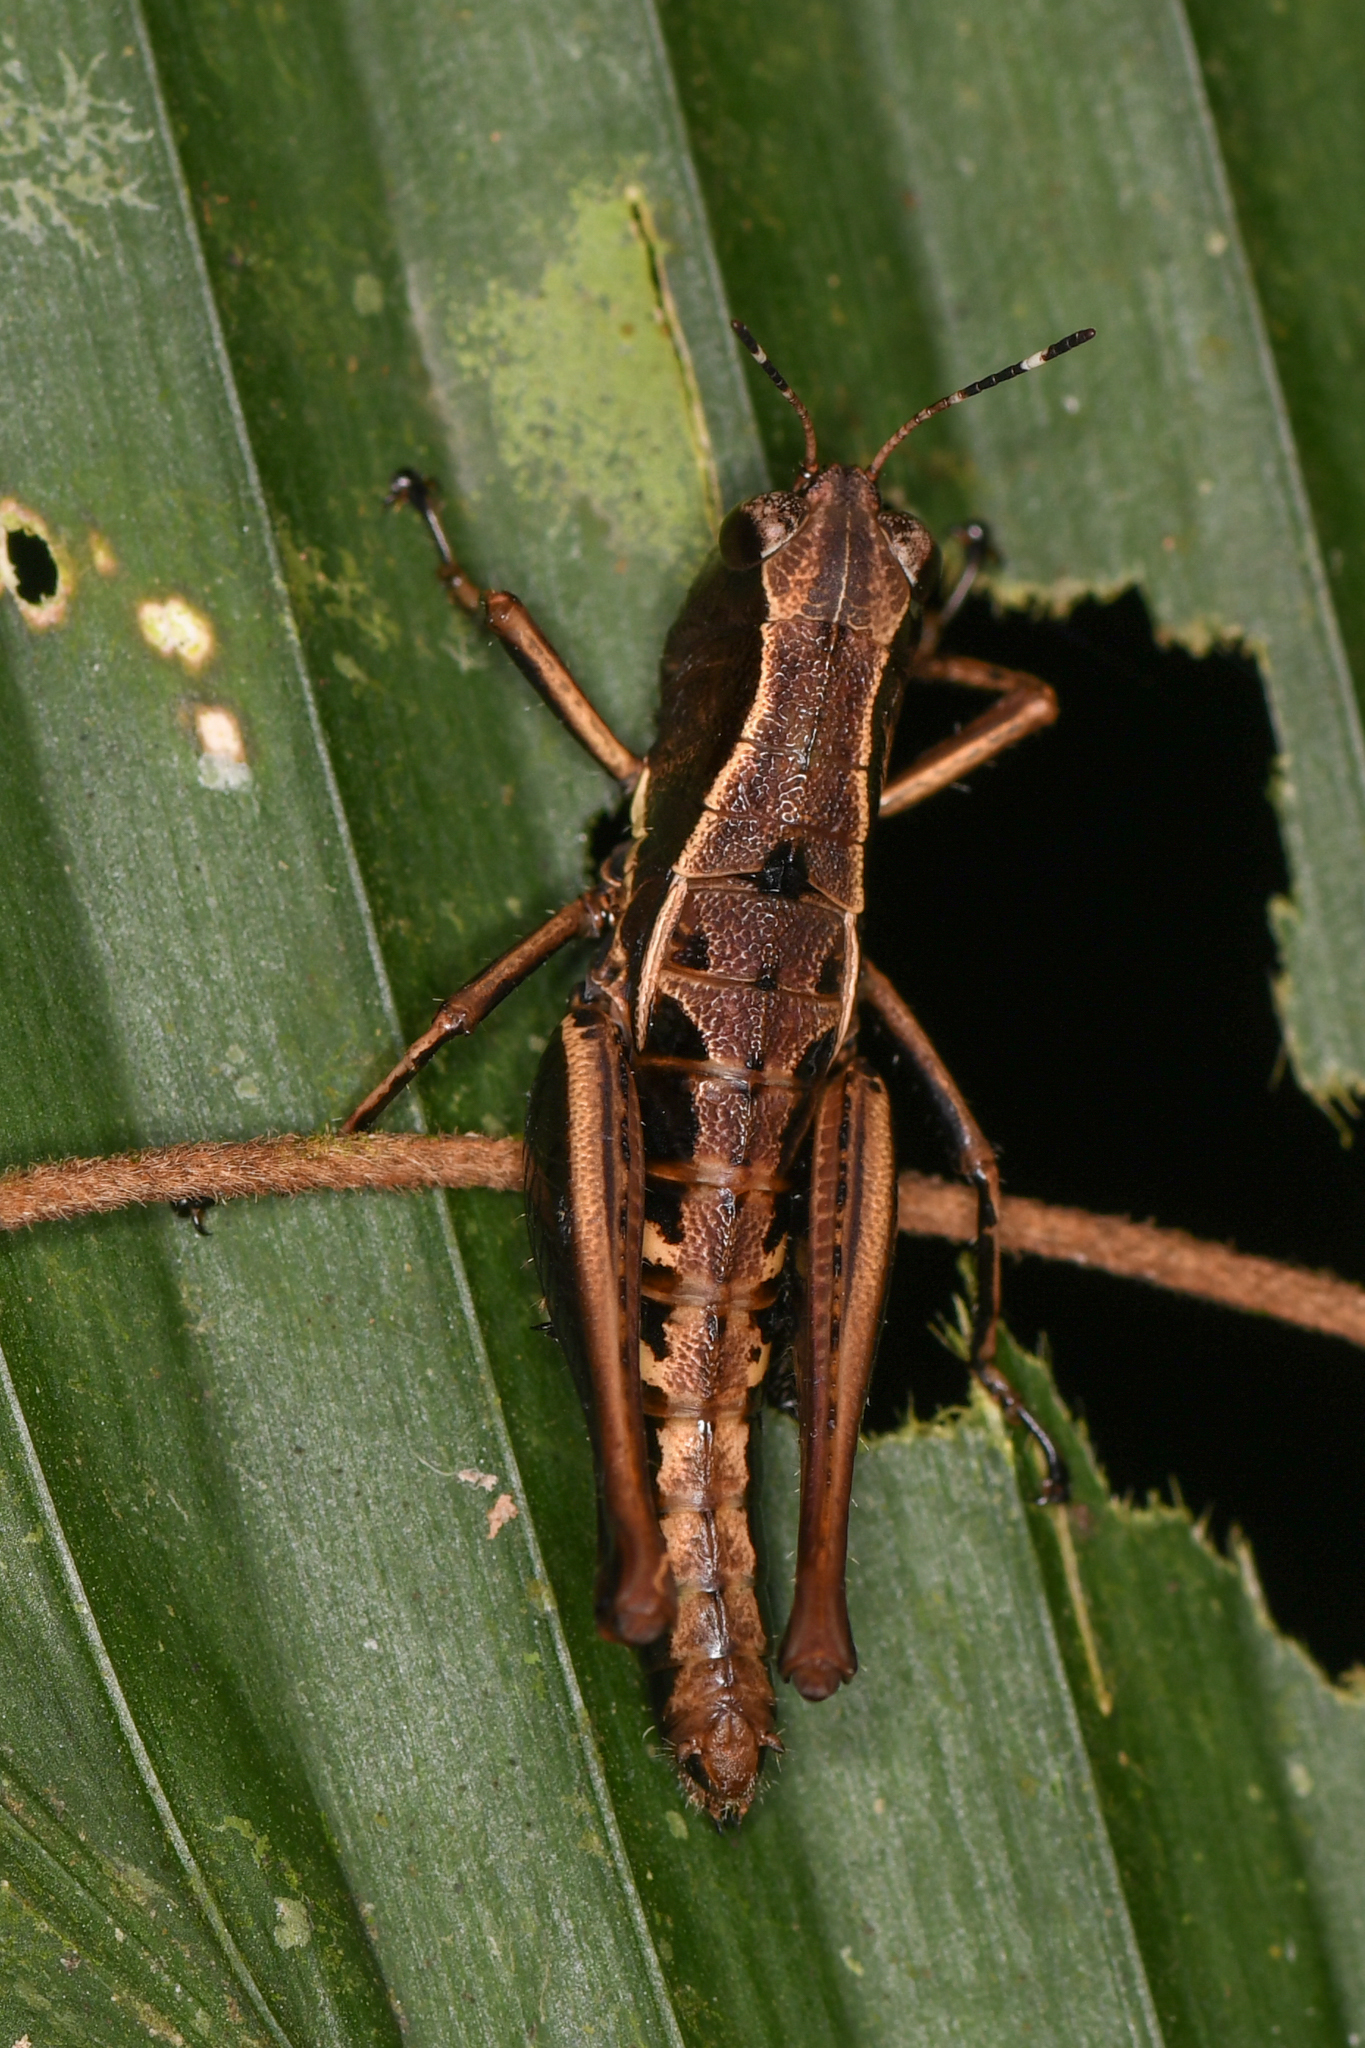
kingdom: Animalia
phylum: Arthropoda
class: Insecta
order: Orthoptera
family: Acrididae
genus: Microtylopteryx
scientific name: Microtylopteryx hebardi
